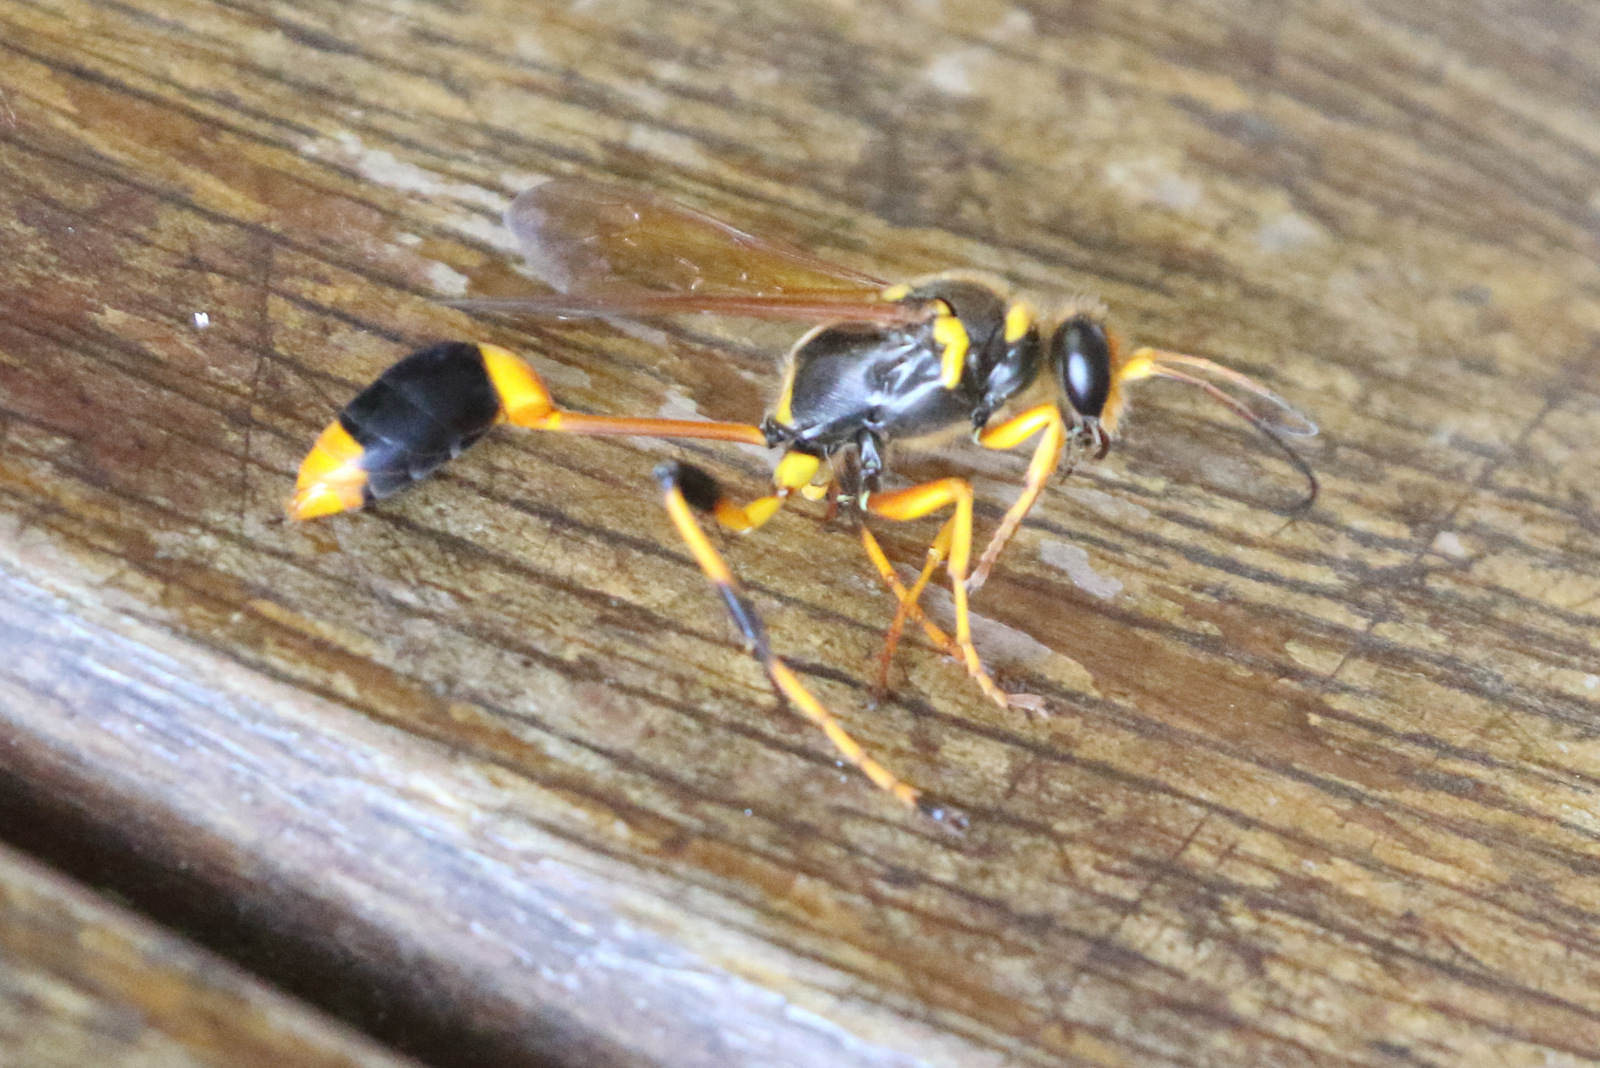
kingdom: Animalia
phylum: Arthropoda
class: Insecta
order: Hymenoptera
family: Sphecidae
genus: Sceliphron
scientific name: Sceliphron laetum
